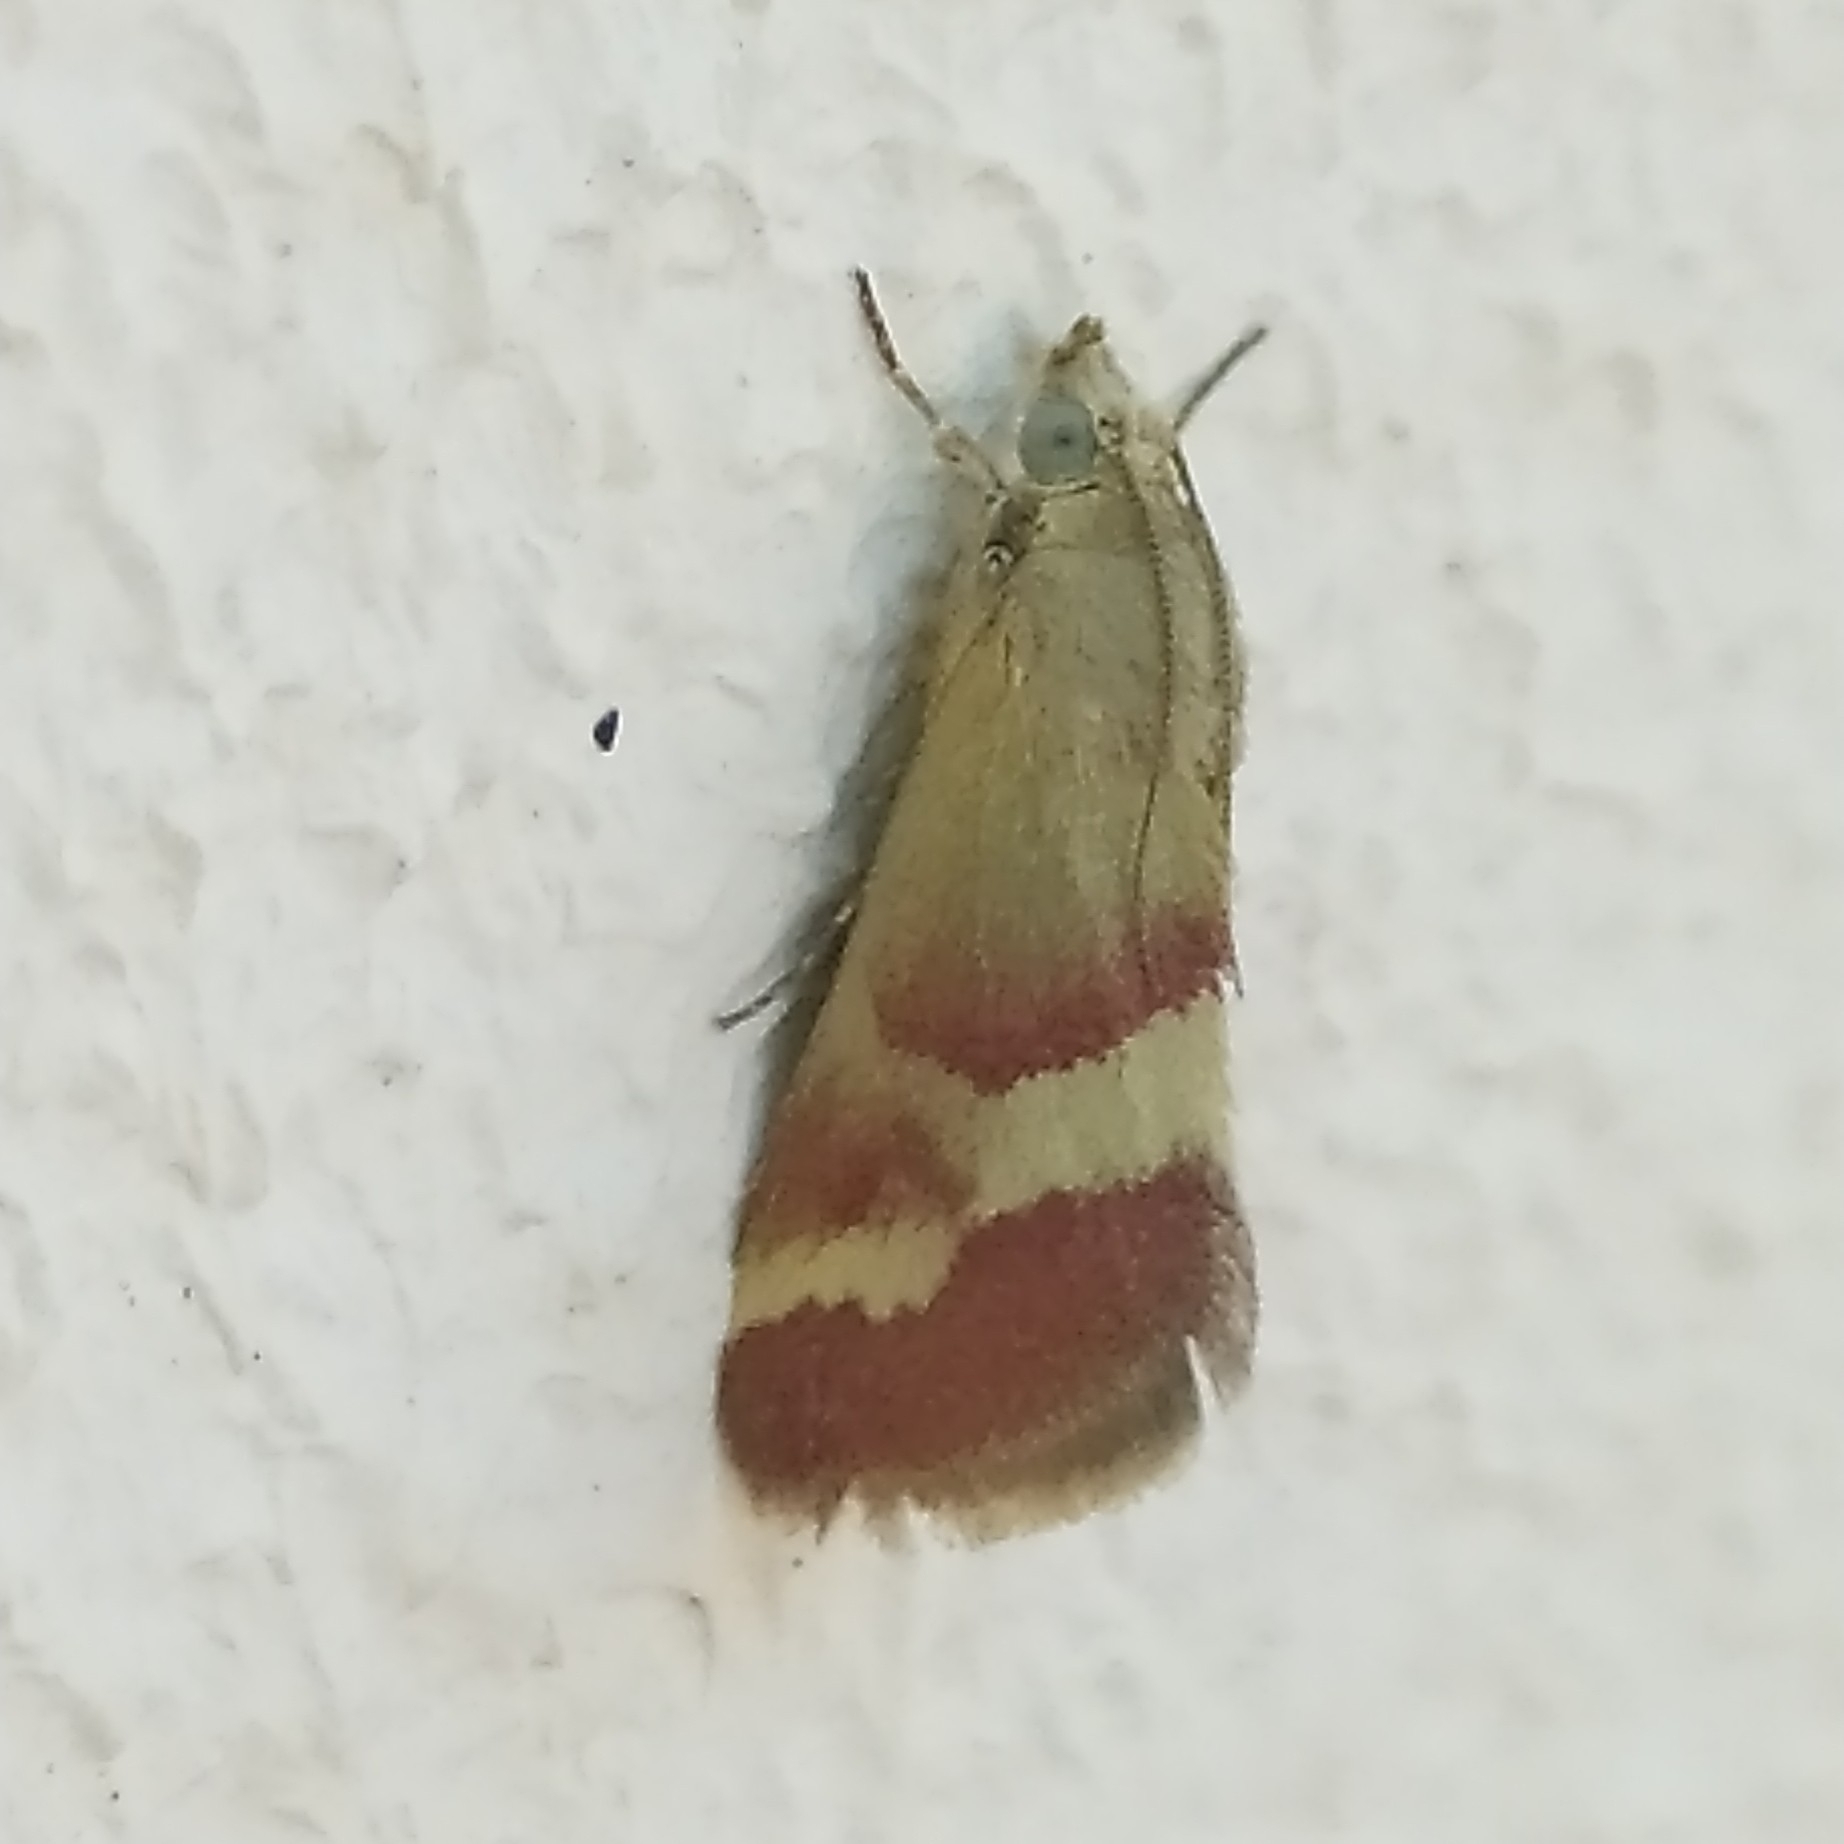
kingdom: Animalia
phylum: Arthropoda
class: Insecta
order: Lepidoptera
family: Crambidae
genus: Tegostoma
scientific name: Tegostoma baphialis
